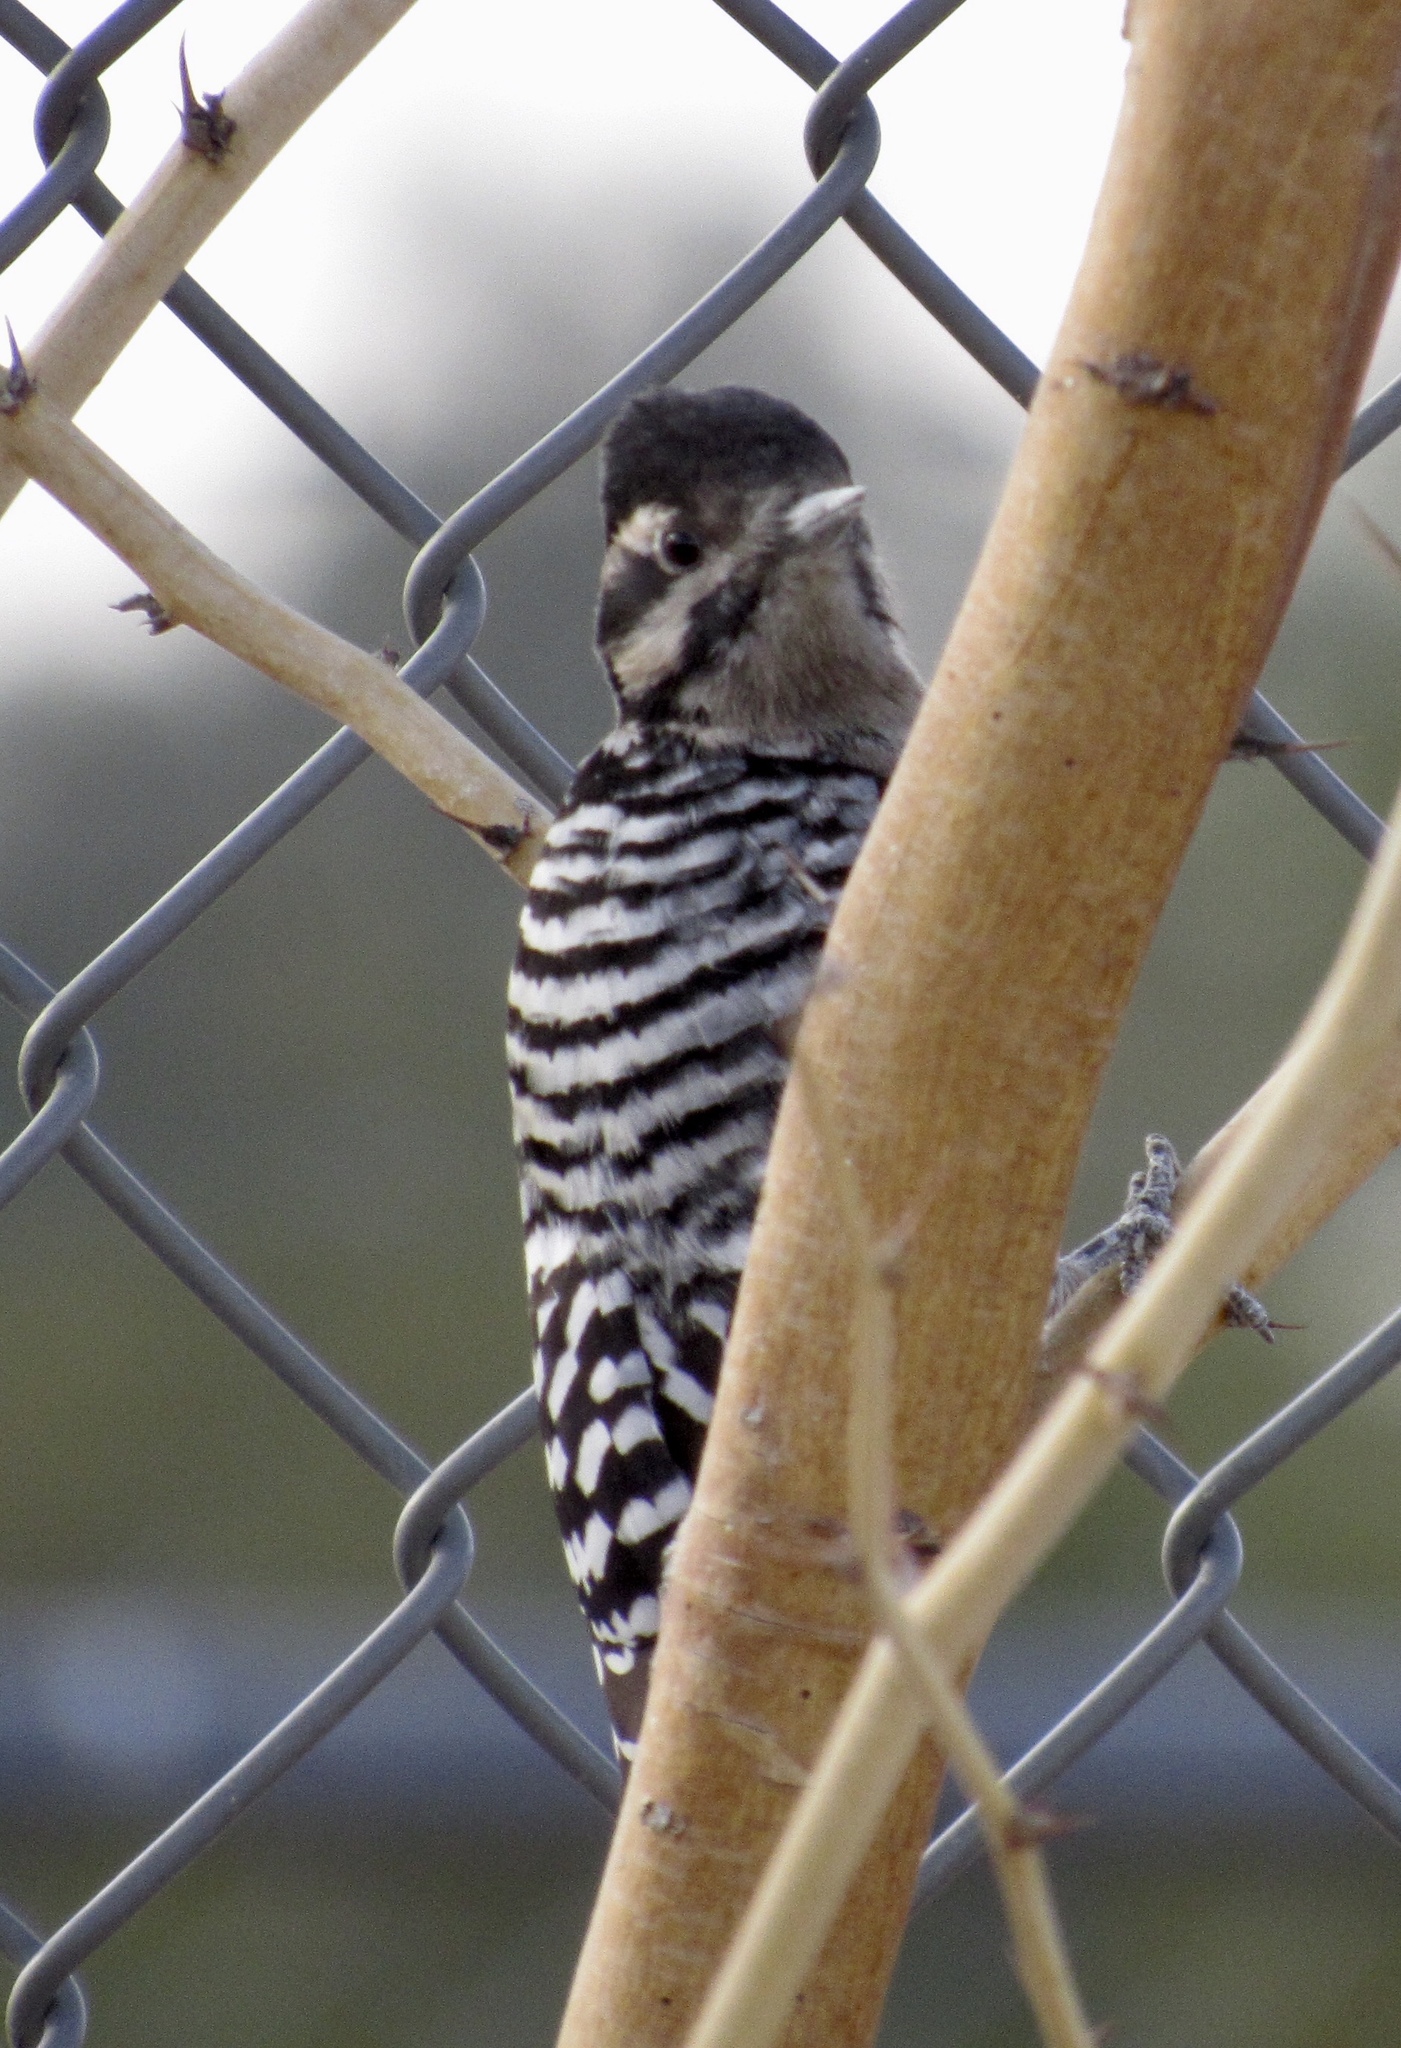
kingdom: Animalia
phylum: Chordata
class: Aves
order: Piciformes
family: Picidae
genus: Dryobates
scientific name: Dryobates scalaris
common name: Ladder-backed woodpecker
